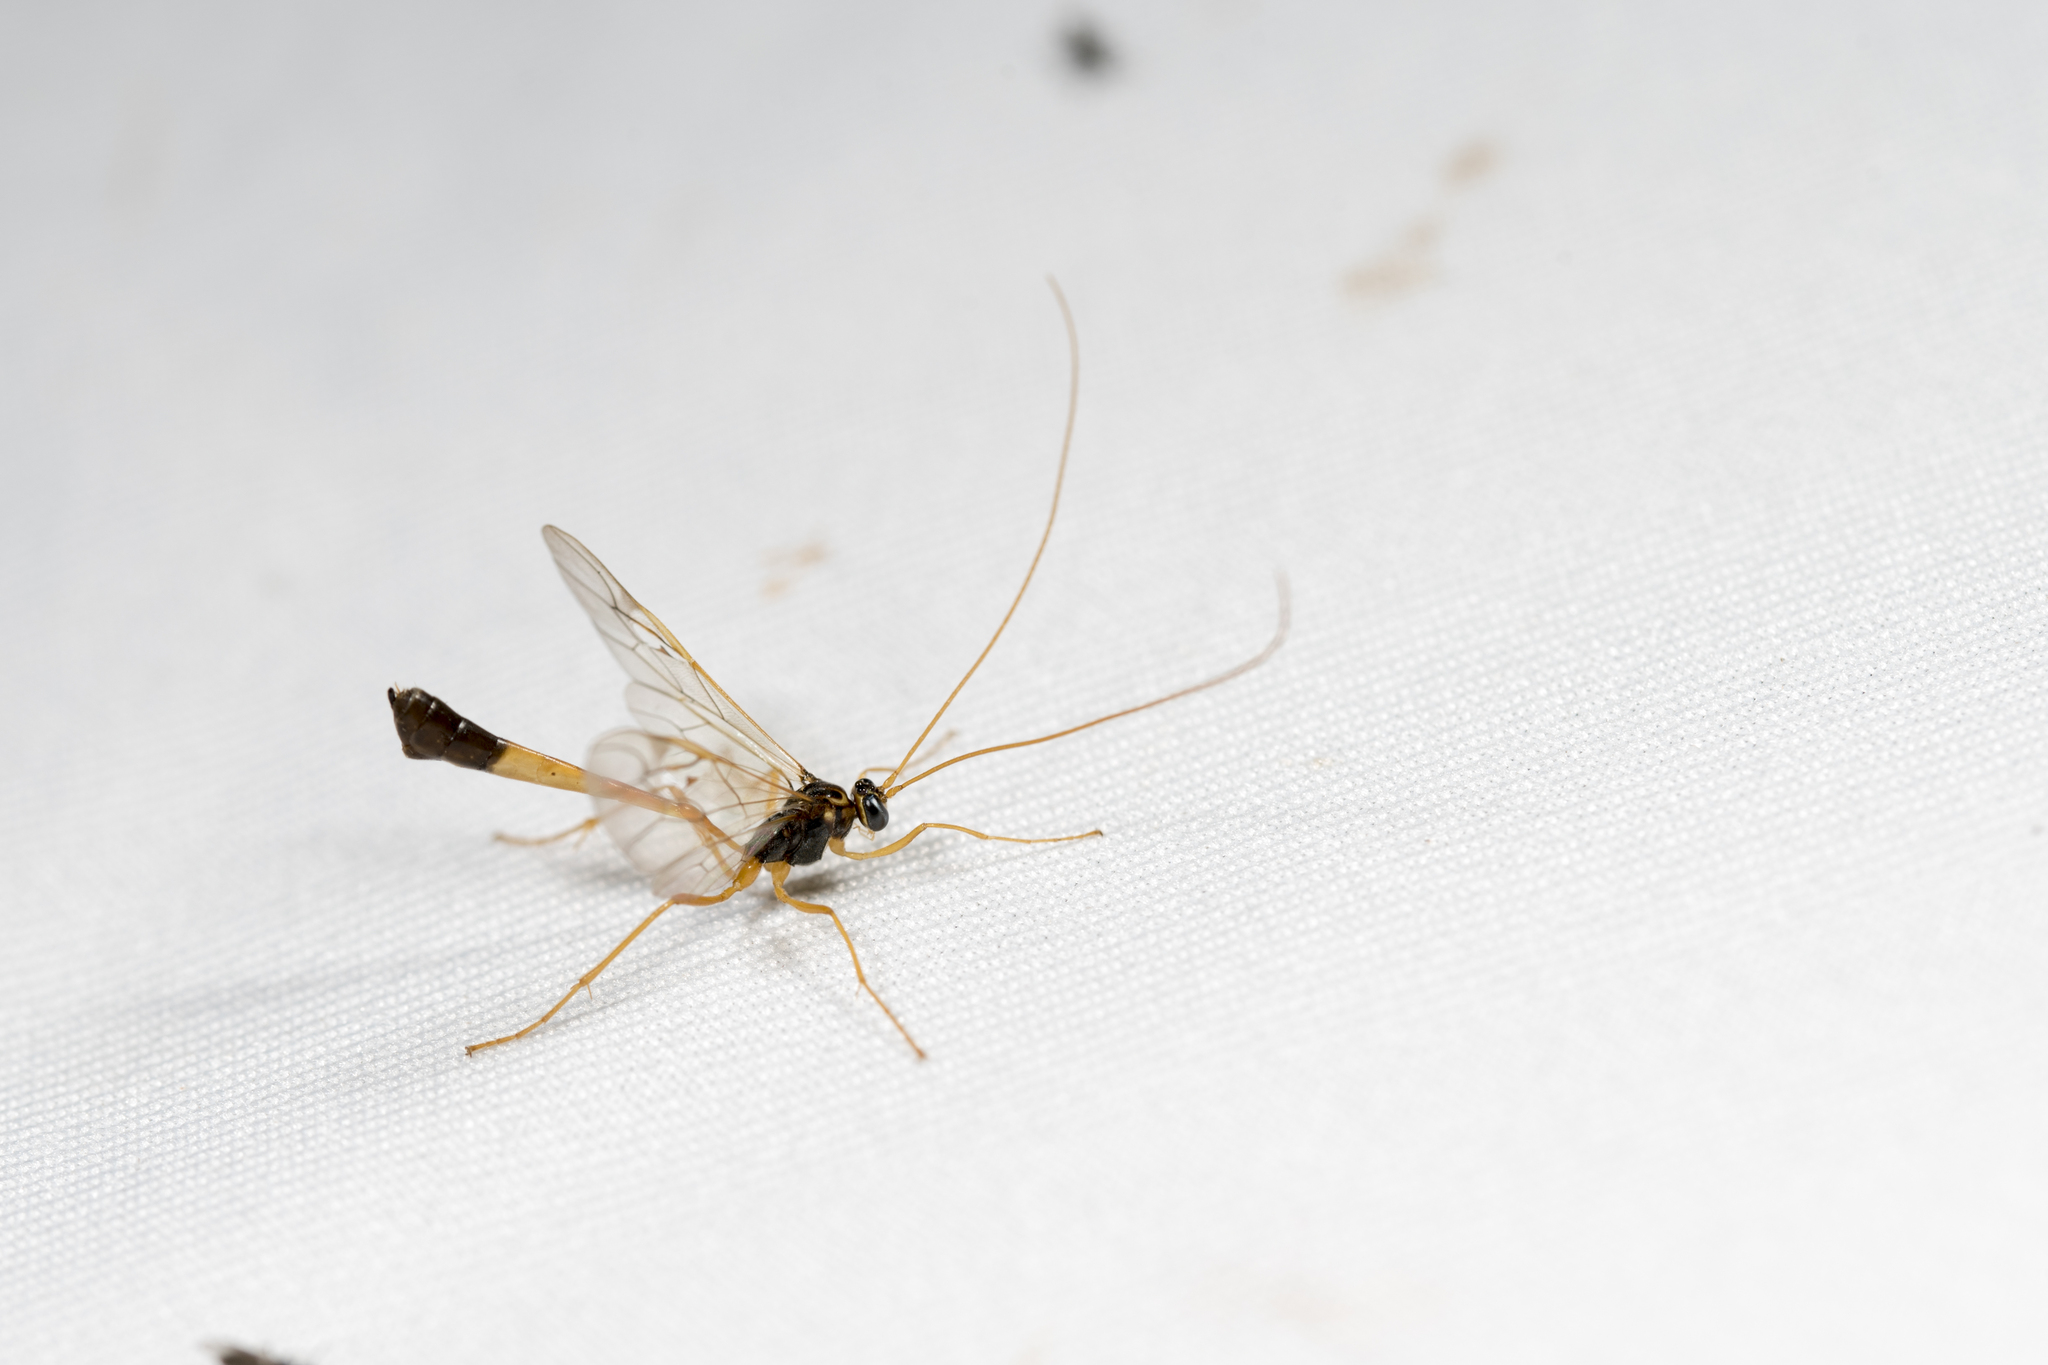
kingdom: Animalia
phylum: Arthropoda
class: Insecta
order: Hymenoptera
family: Ichneumonidae
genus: Enicospilus
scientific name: Enicospilus bifasciatus
